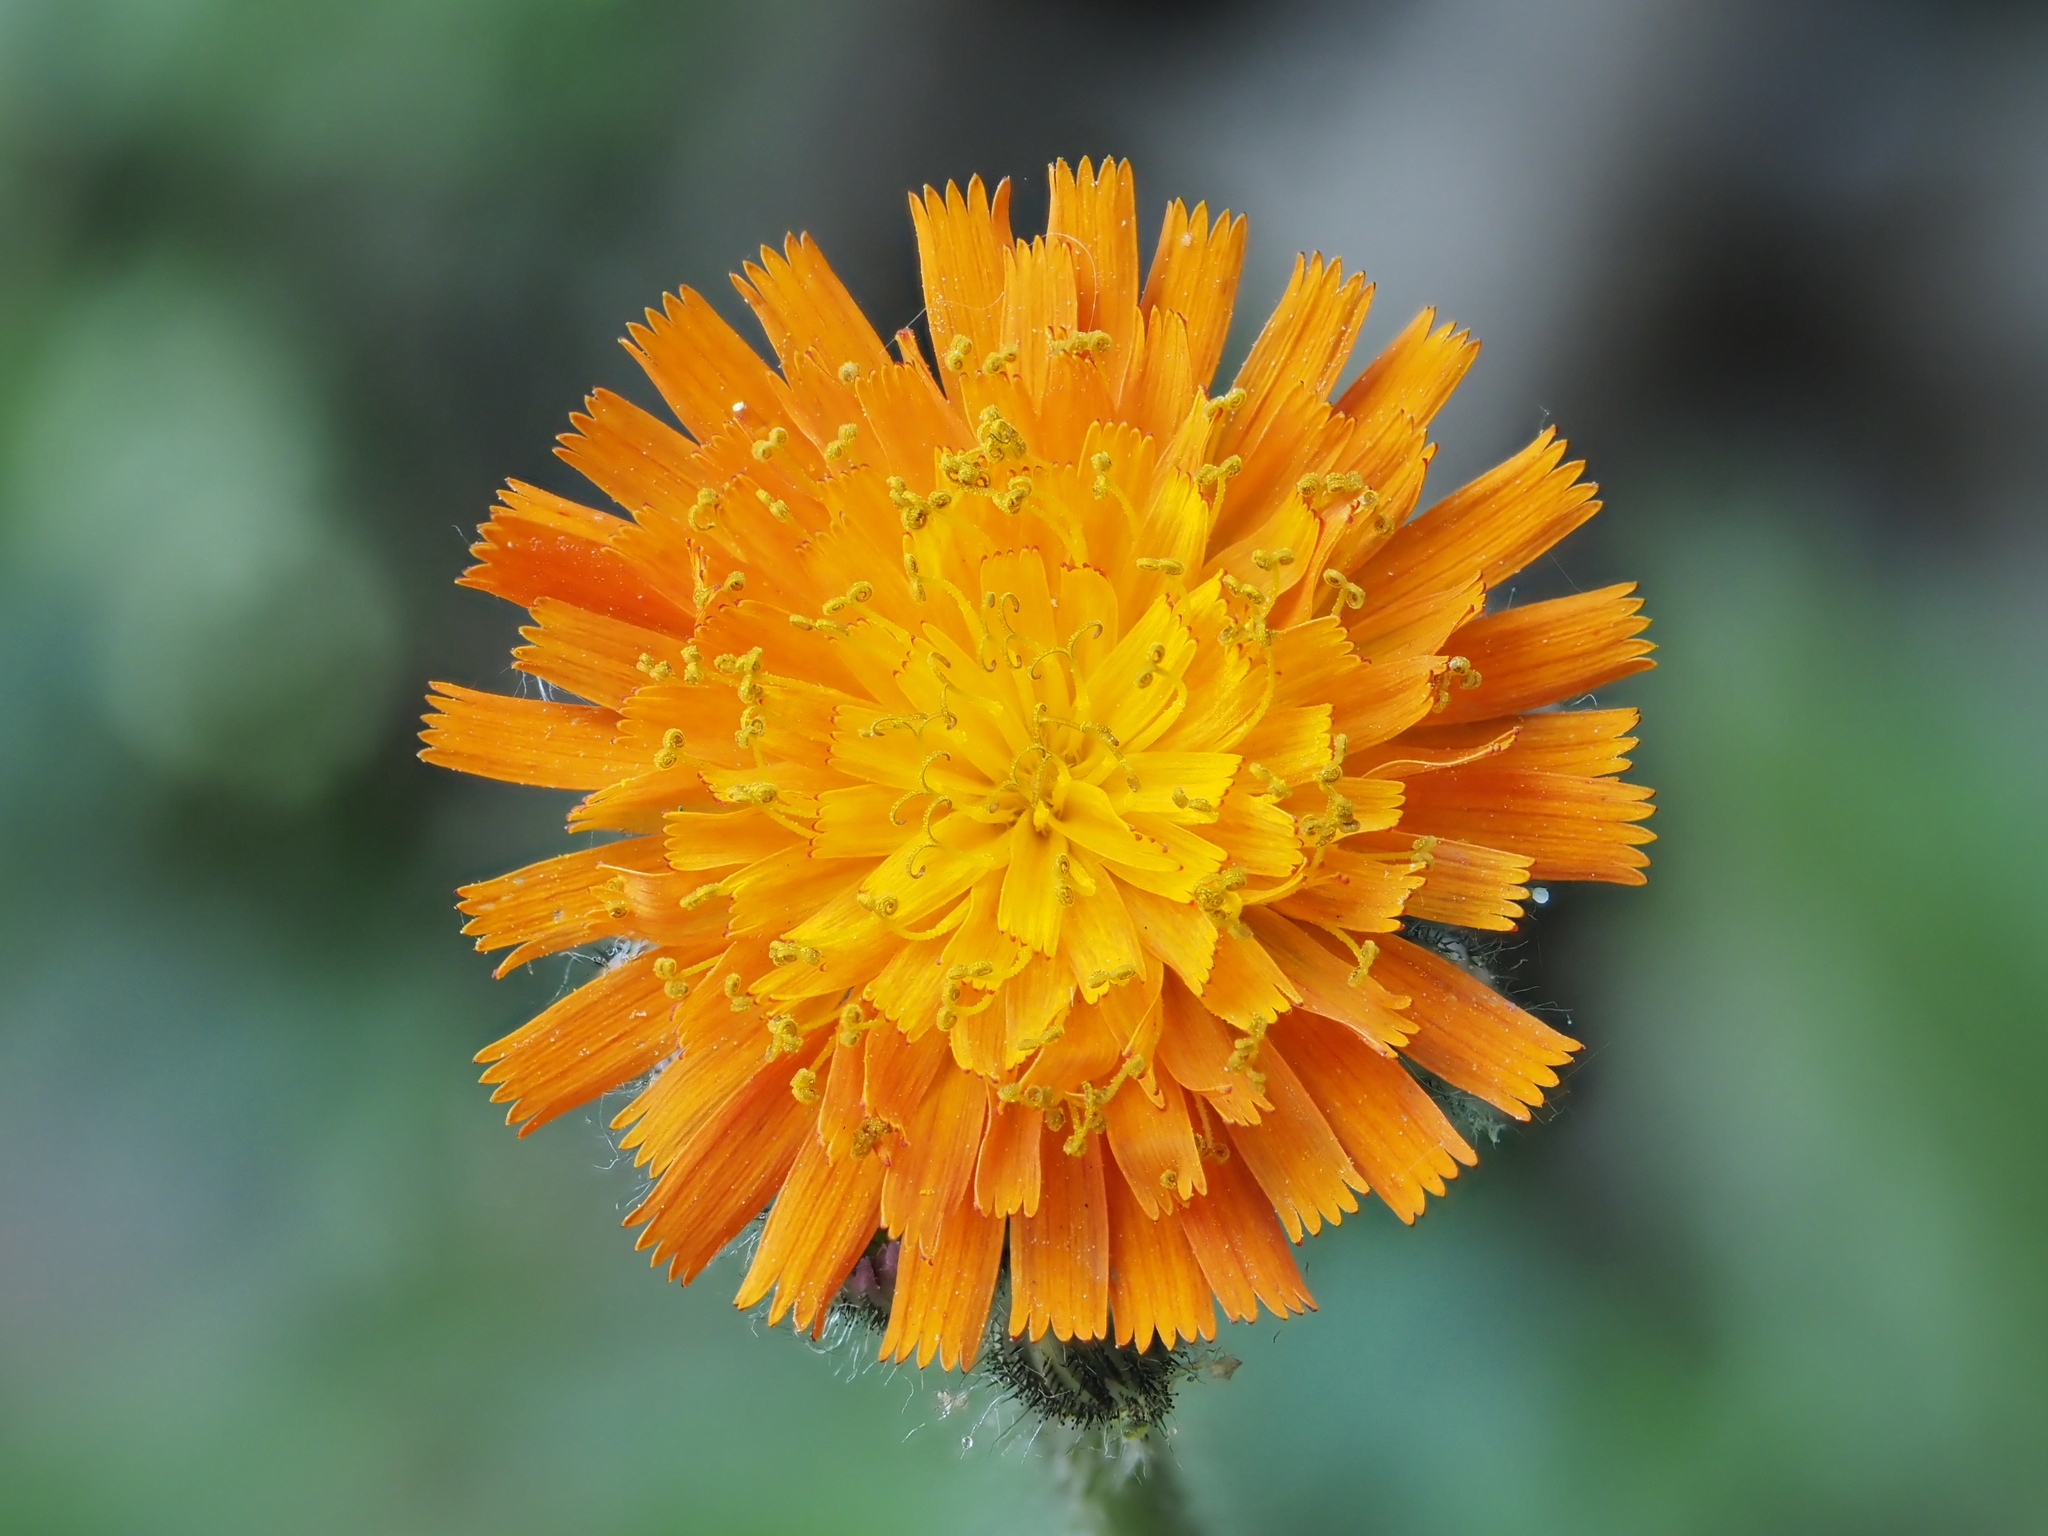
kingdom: Plantae
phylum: Tracheophyta
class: Magnoliopsida
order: Asterales
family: Asteraceae
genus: Pilosella
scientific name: Pilosella aurantiaca
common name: Fox-and-cubs
